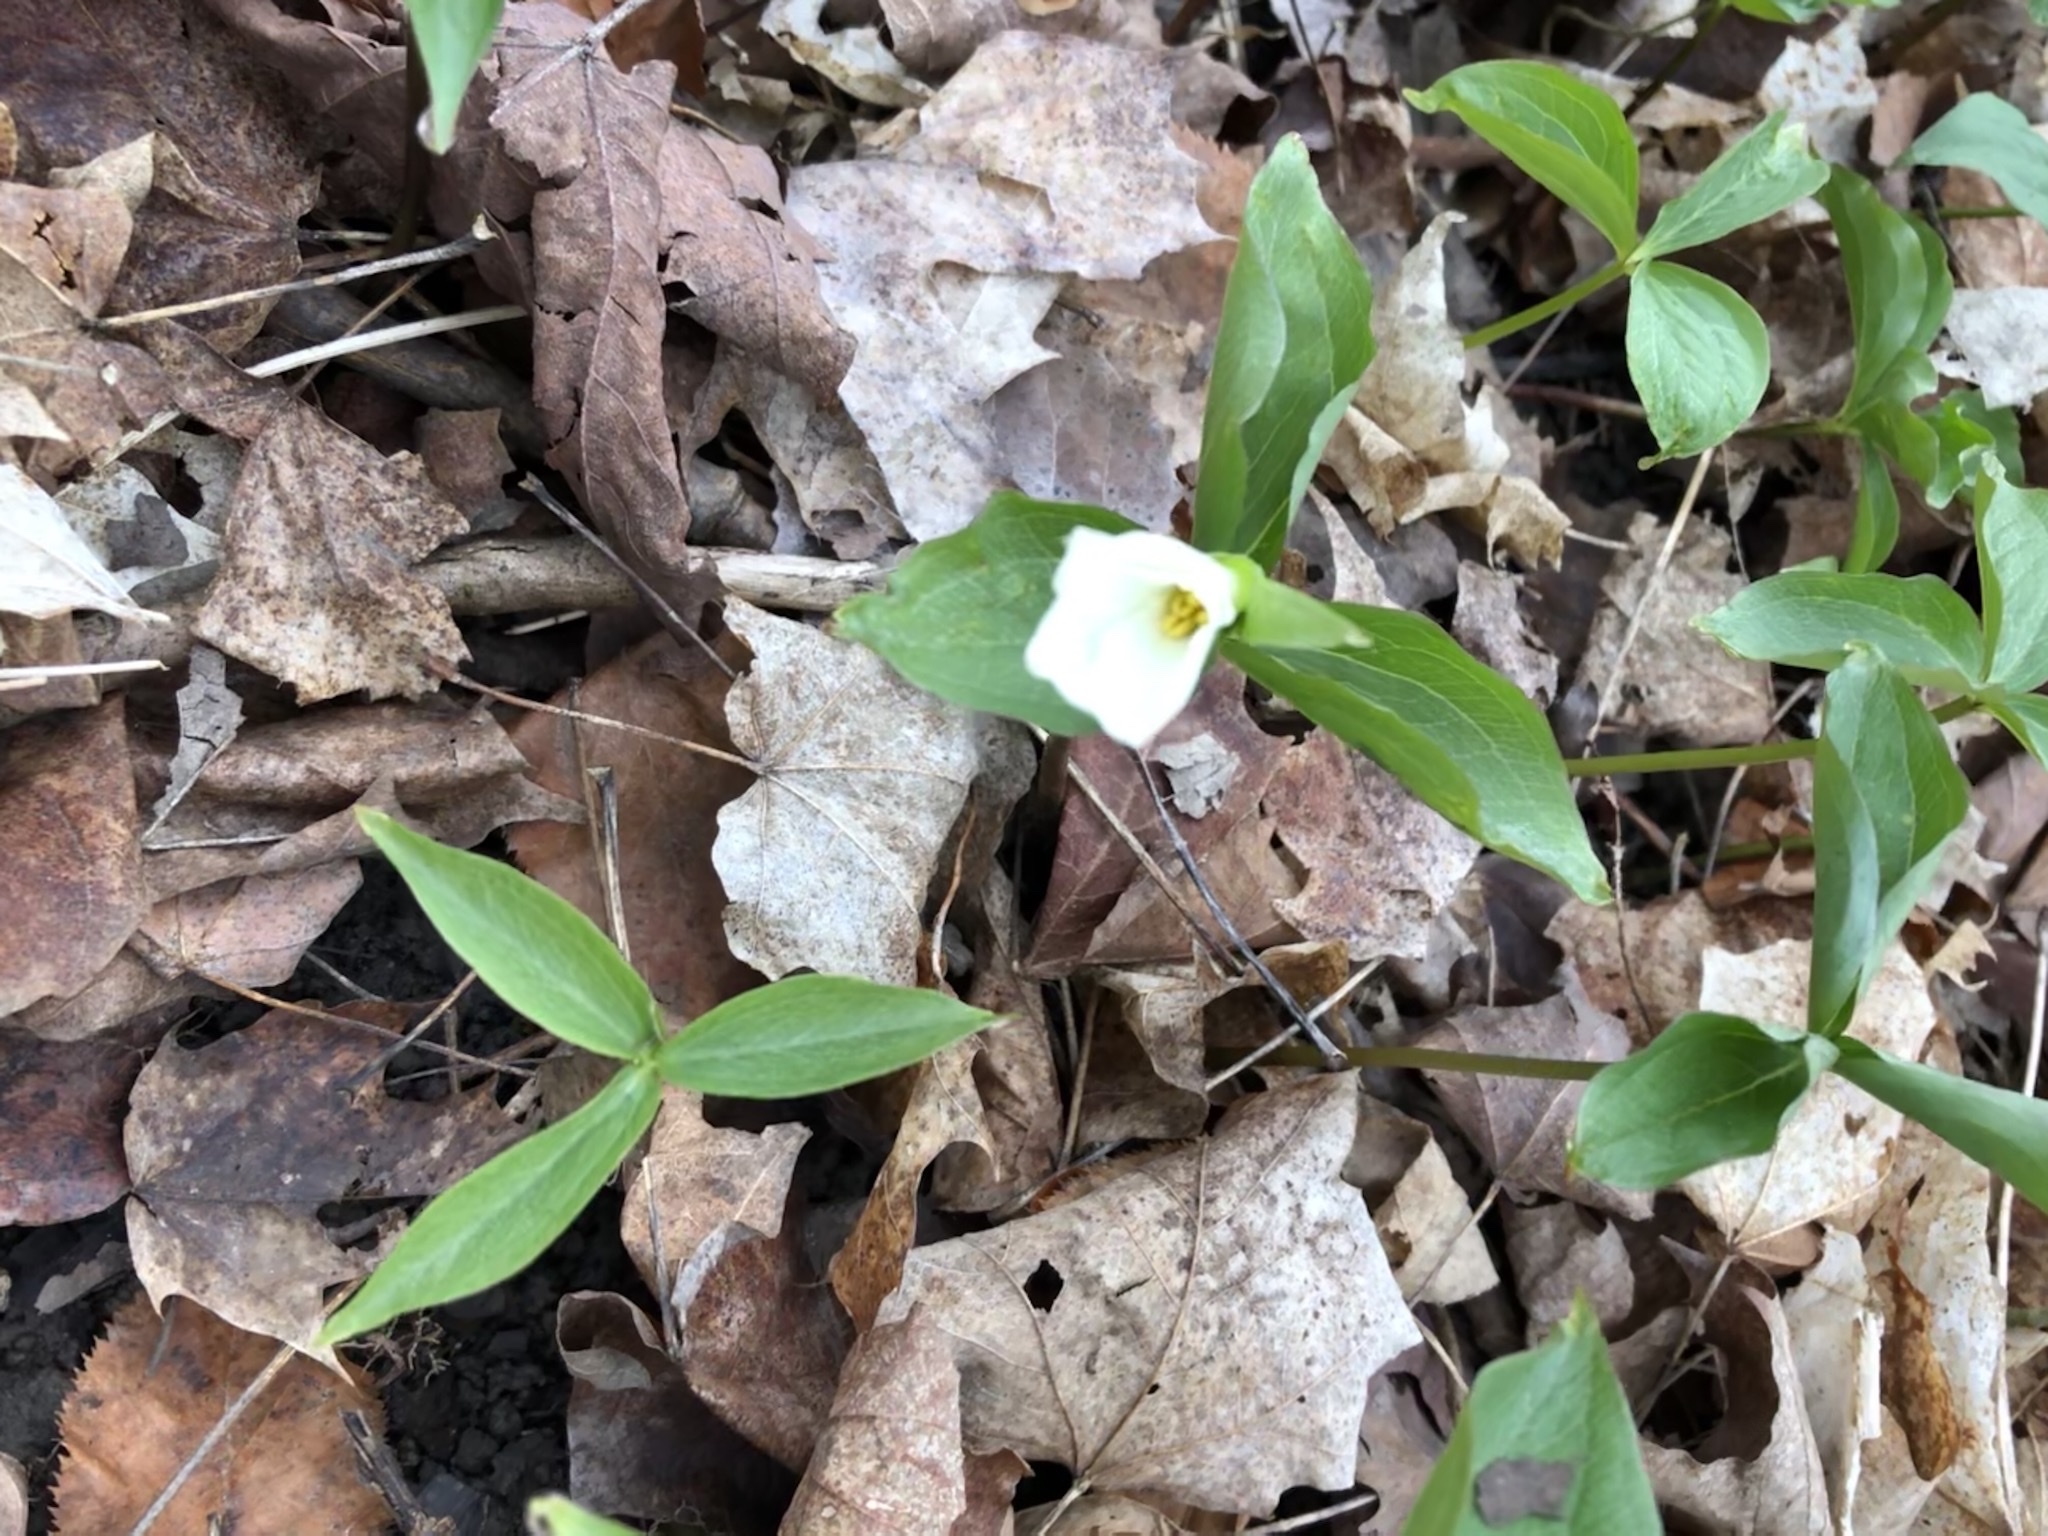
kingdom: Plantae
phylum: Tracheophyta
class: Liliopsida
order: Liliales
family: Melanthiaceae
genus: Trillium
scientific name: Trillium grandiflorum
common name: Great white trillium
